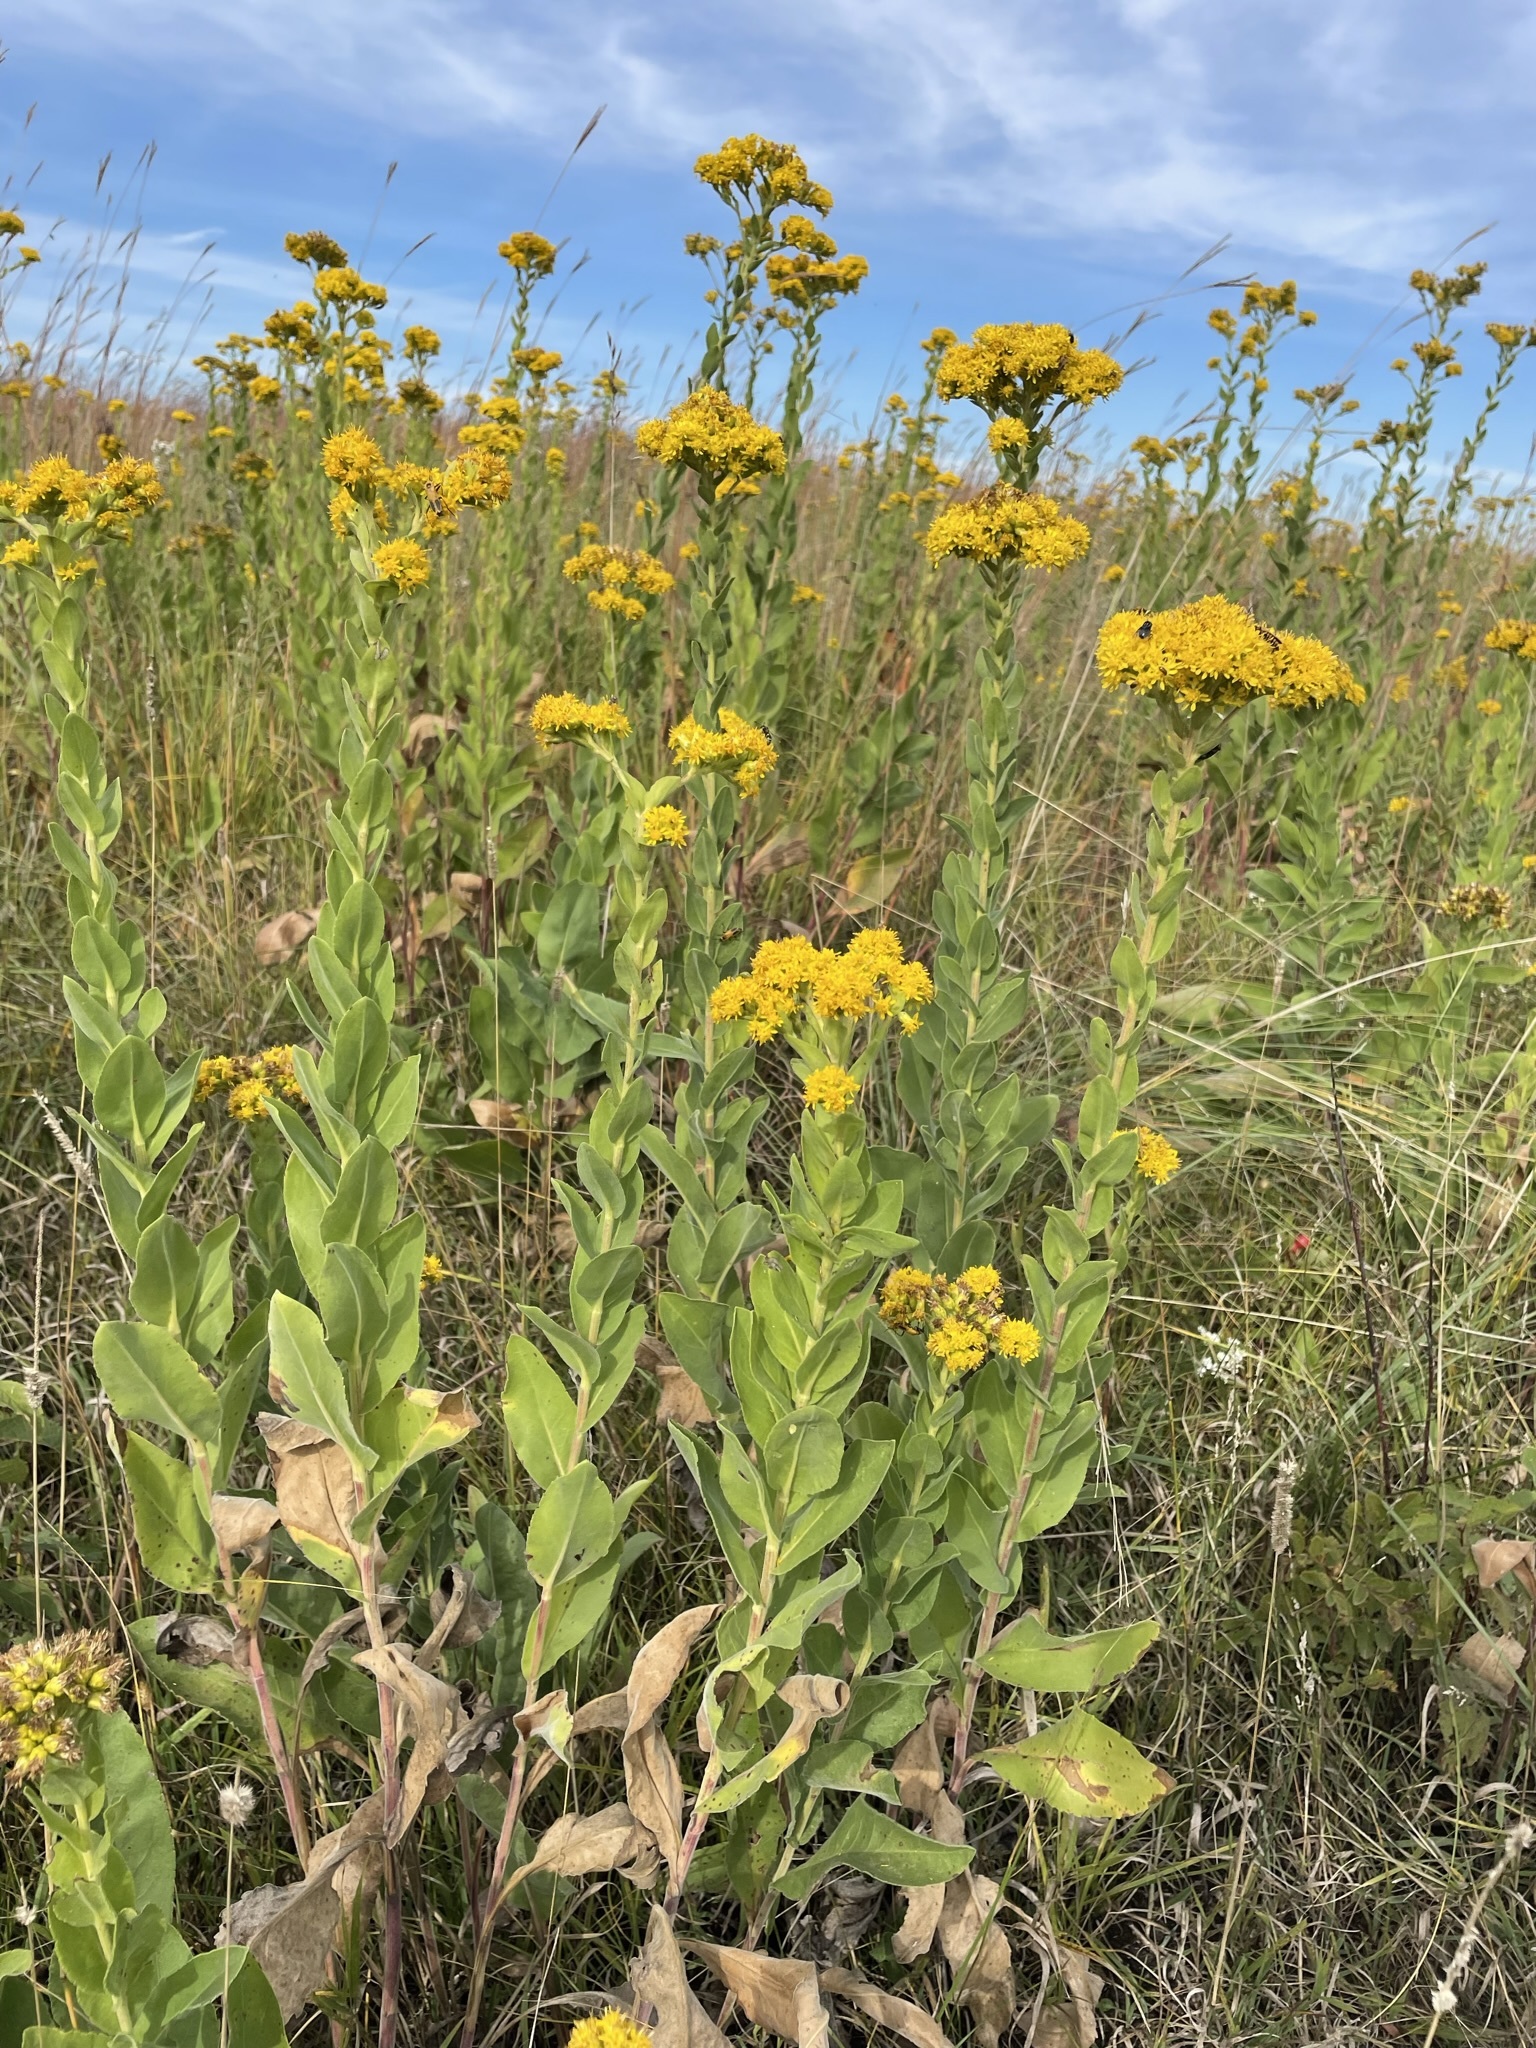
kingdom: Plantae
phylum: Tracheophyta
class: Magnoliopsida
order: Asterales
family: Asteraceae
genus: Solidago
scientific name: Solidago rigida
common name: Rigid goldenrod
